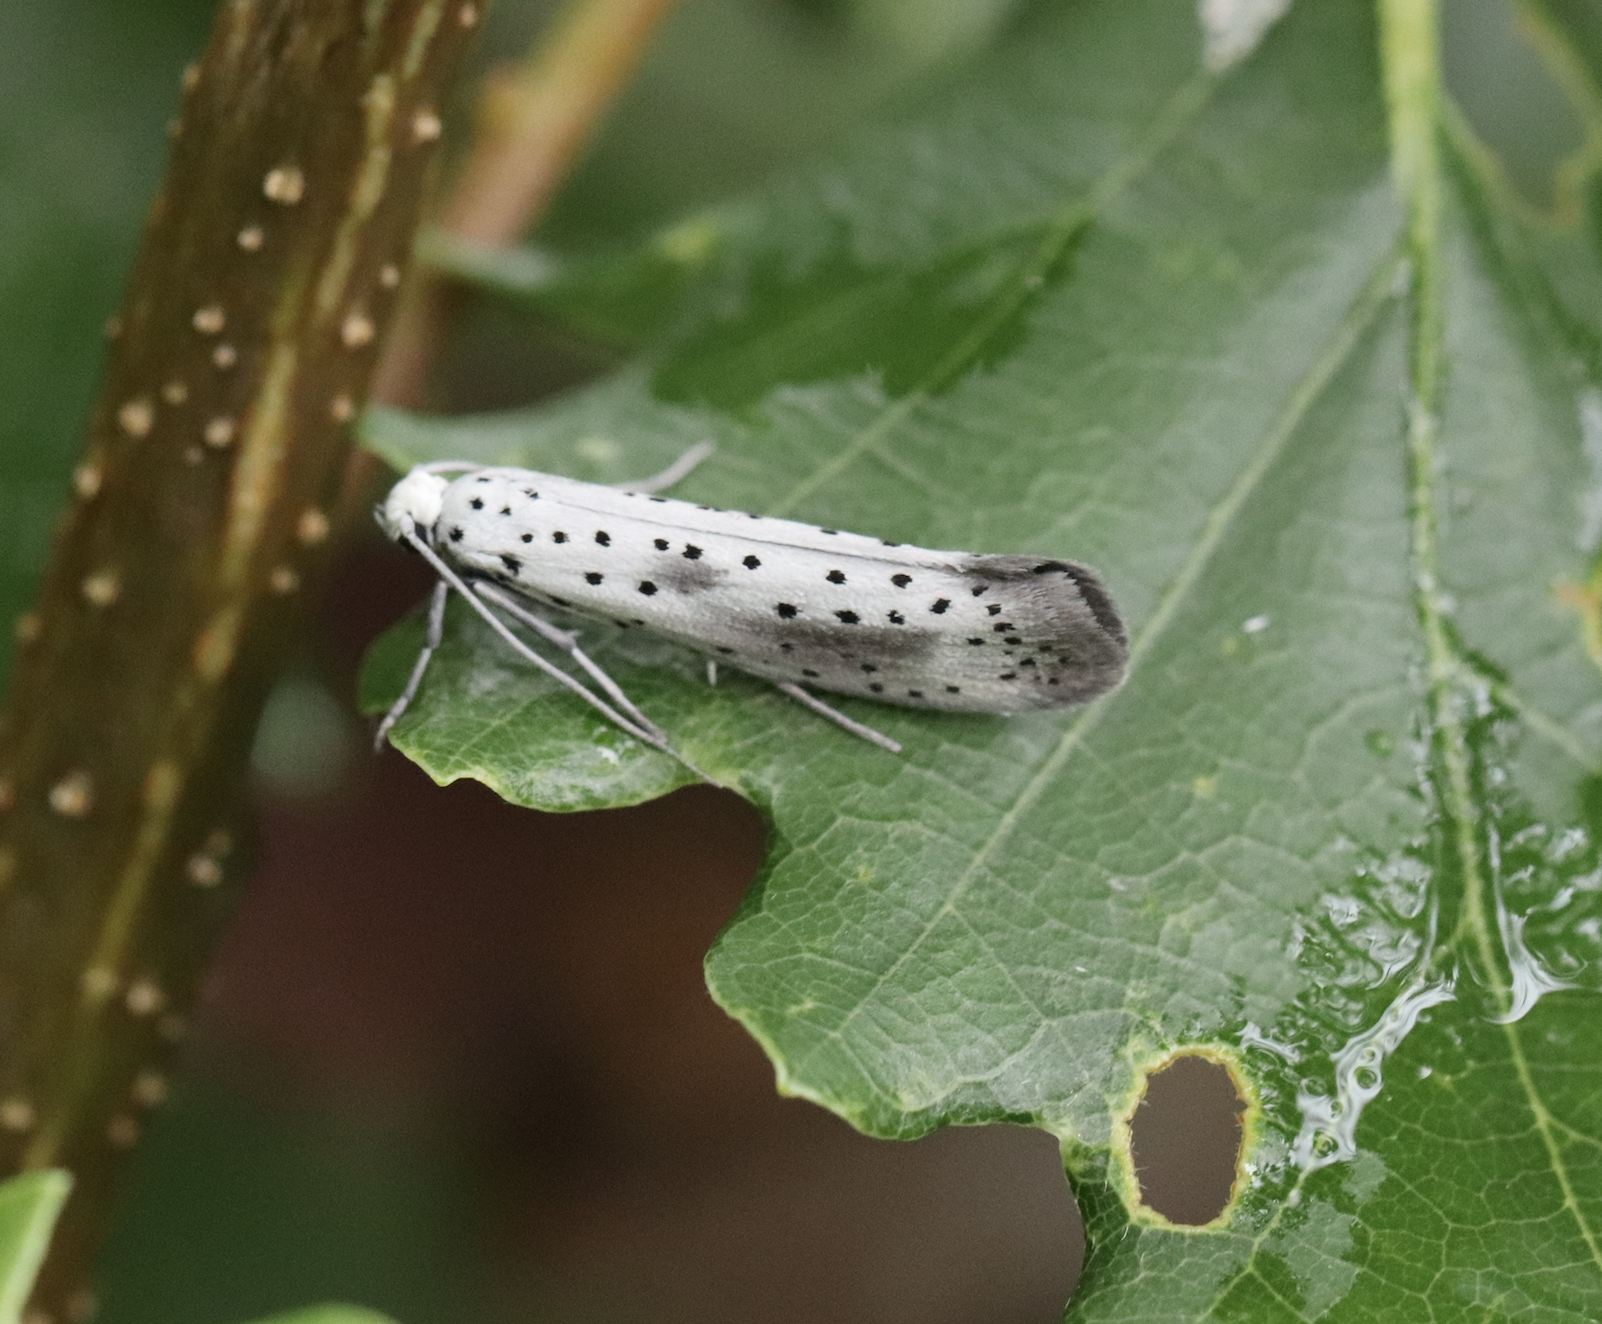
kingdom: Animalia
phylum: Arthropoda
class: Insecta
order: Lepidoptera
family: Yponomeutidae
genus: Yponomeuta
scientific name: Yponomeuta irrorella
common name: Scarce ermine
